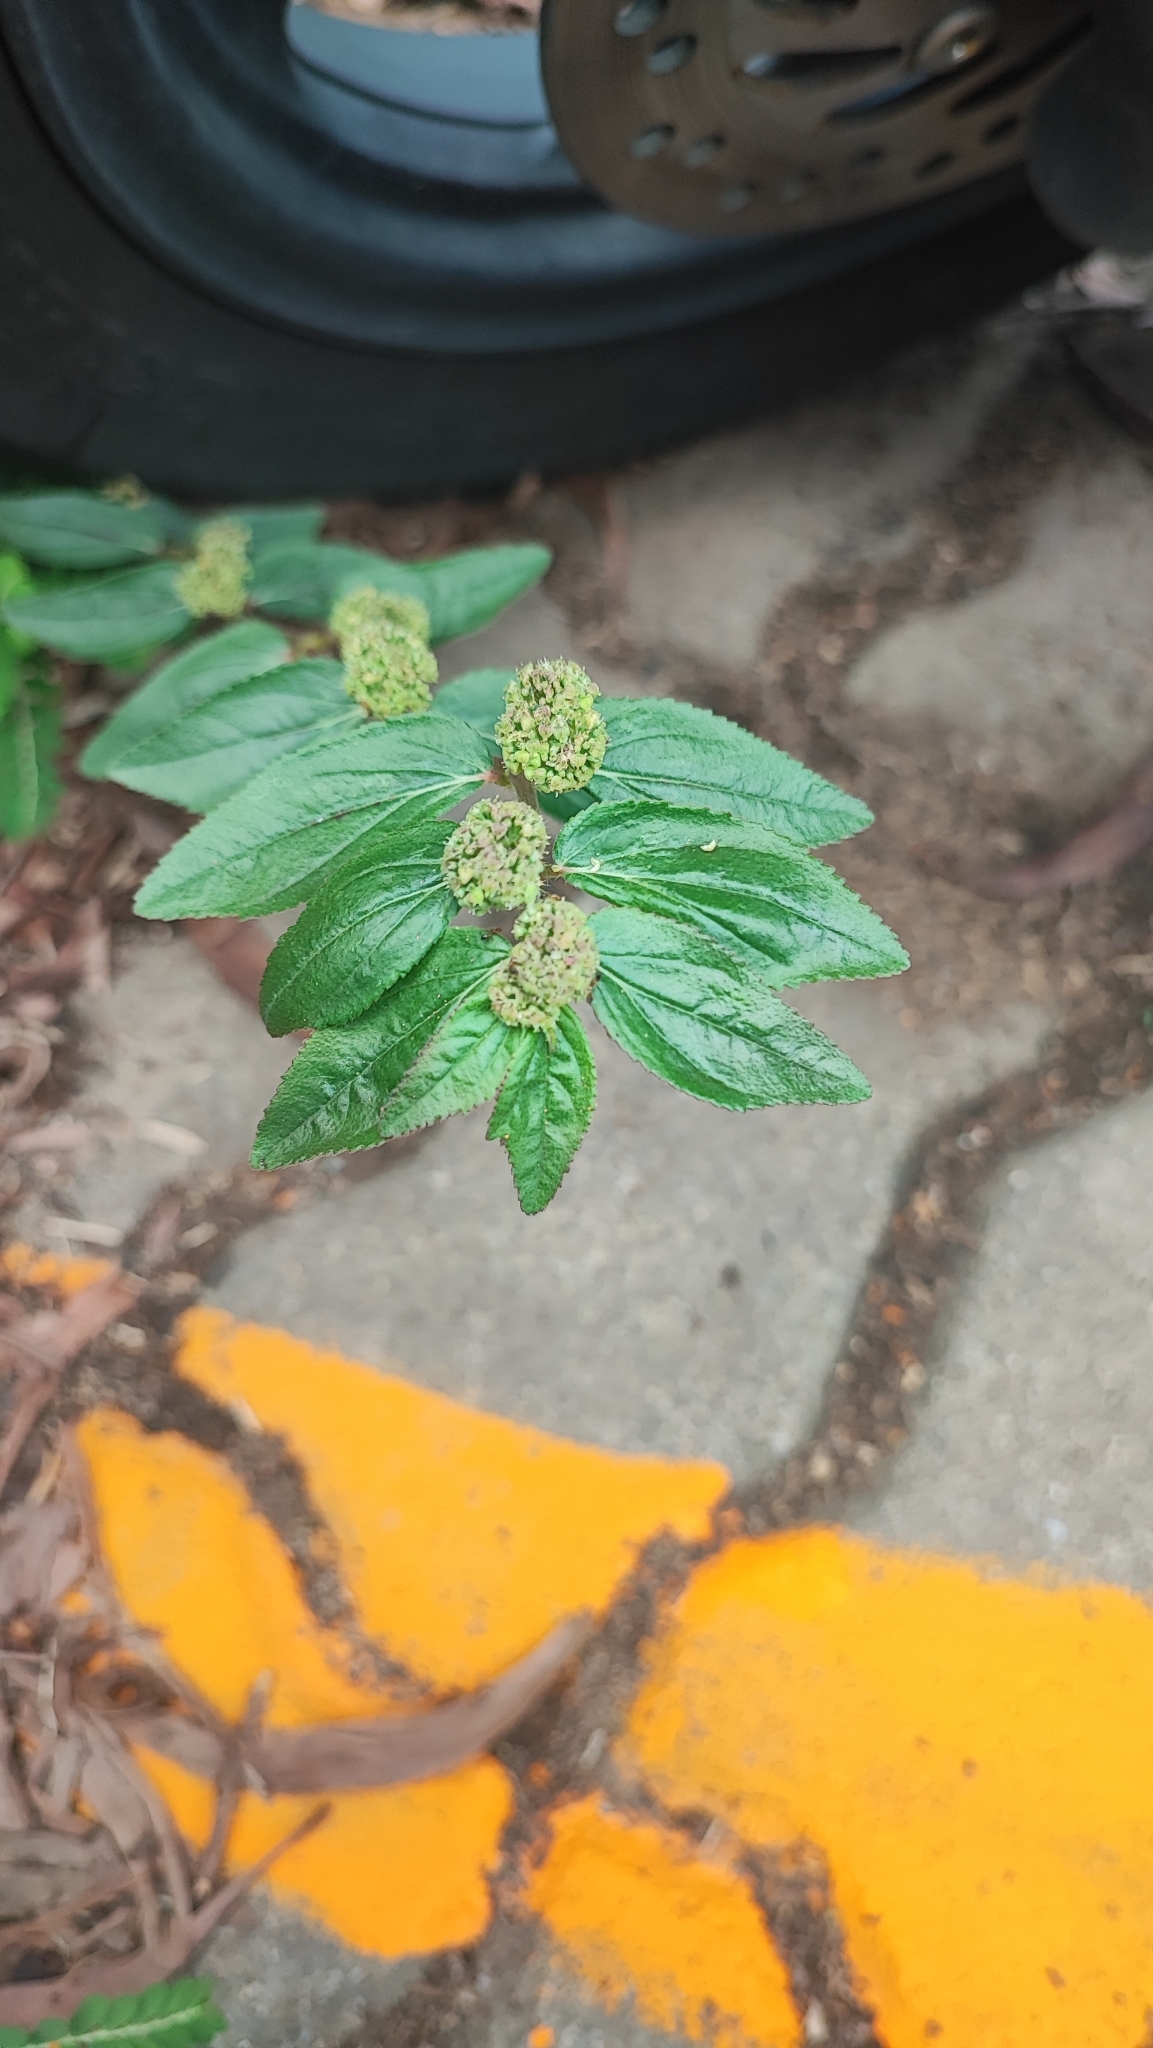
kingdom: Plantae
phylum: Tracheophyta
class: Magnoliopsida
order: Malpighiales
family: Euphorbiaceae
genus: Euphorbia
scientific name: Euphorbia hirta
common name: Pillpod sandmat
